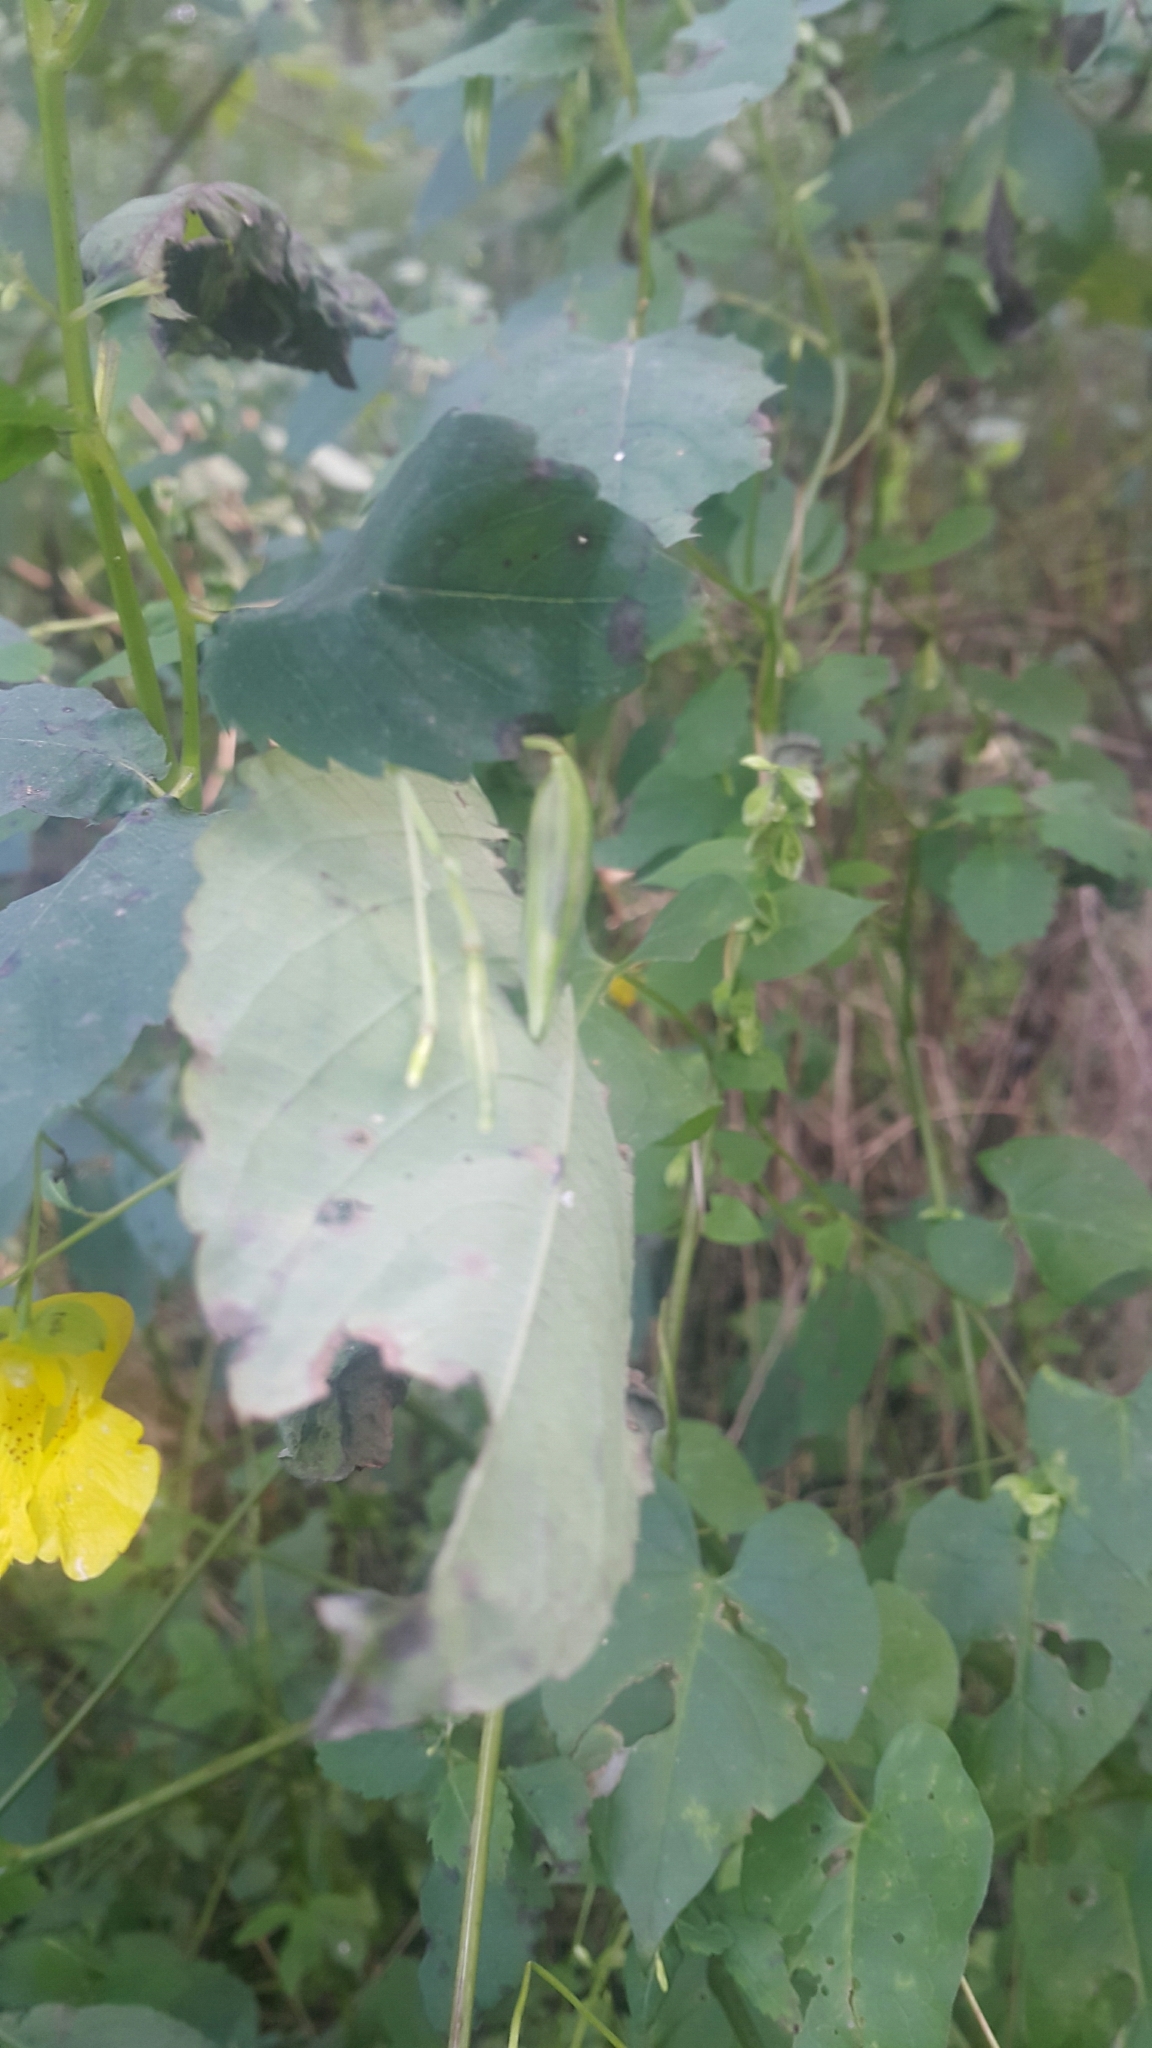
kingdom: Plantae
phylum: Tracheophyta
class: Magnoliopsida
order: Ericales
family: Balsaminaceae
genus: Impatiens
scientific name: Impatiens pallida
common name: Pale snapweed
